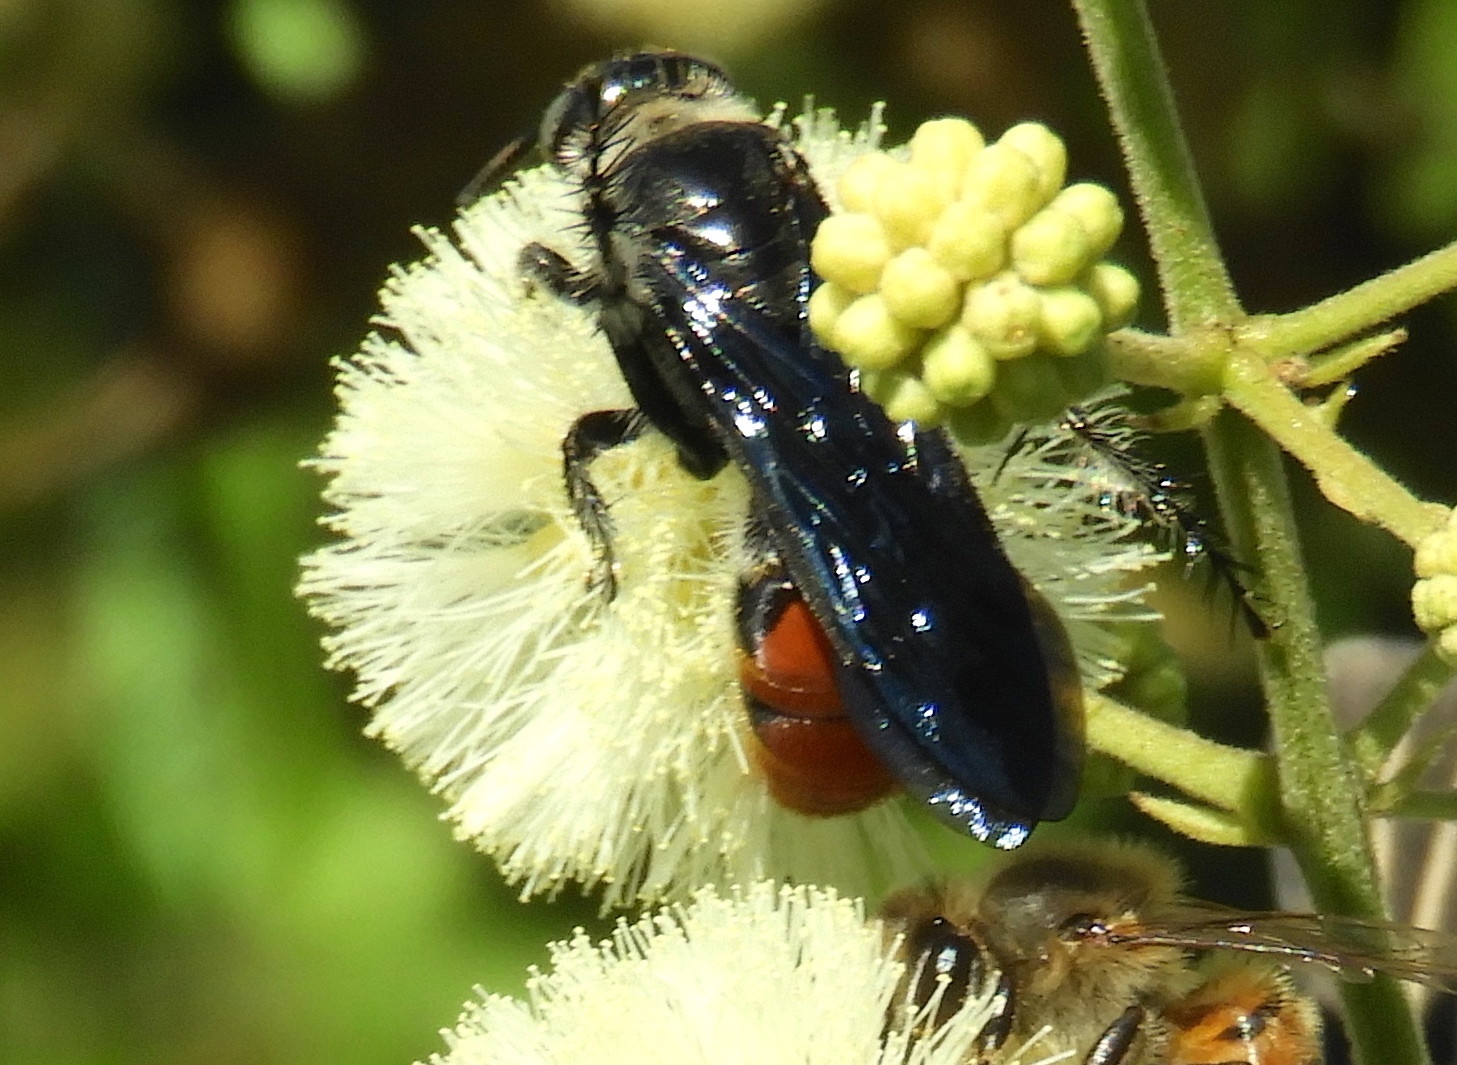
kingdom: Animalia
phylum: Arthropoda
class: Insecta
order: Hymenoptera
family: Scoliidae
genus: Dielis
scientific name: Dielis tolteca
